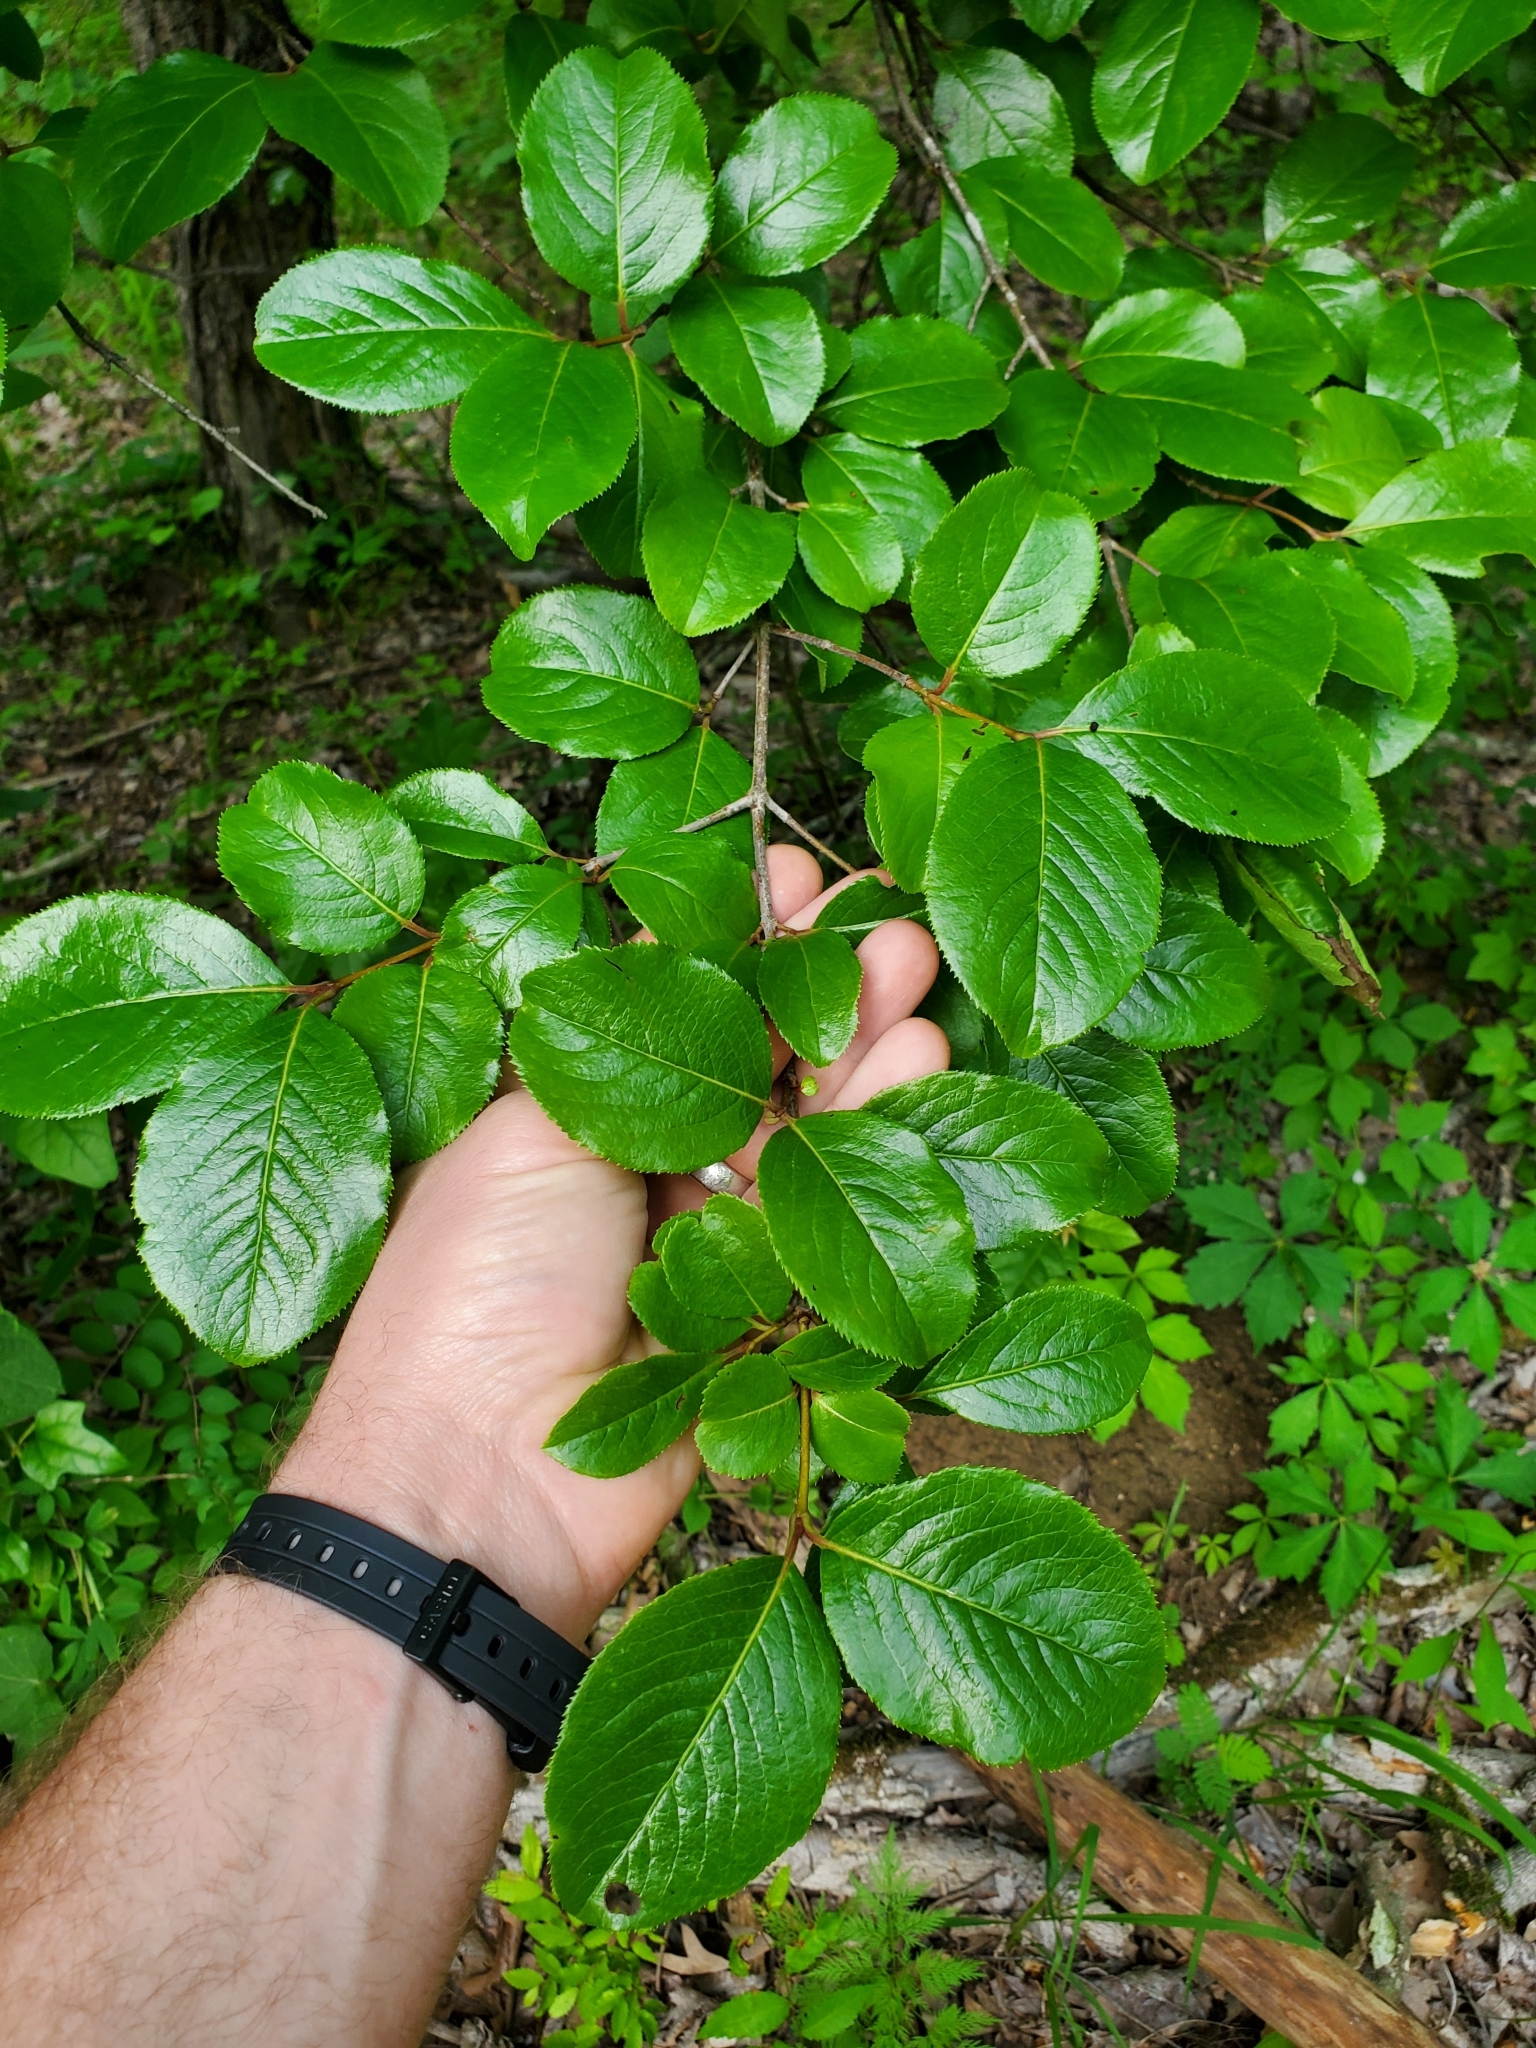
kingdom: Plantae
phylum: Tracheophyta
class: Magnoliopsida
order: Dipsacales
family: Viburnaceae
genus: Viburnum
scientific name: Viburnum rufidulum
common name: Blue haw
